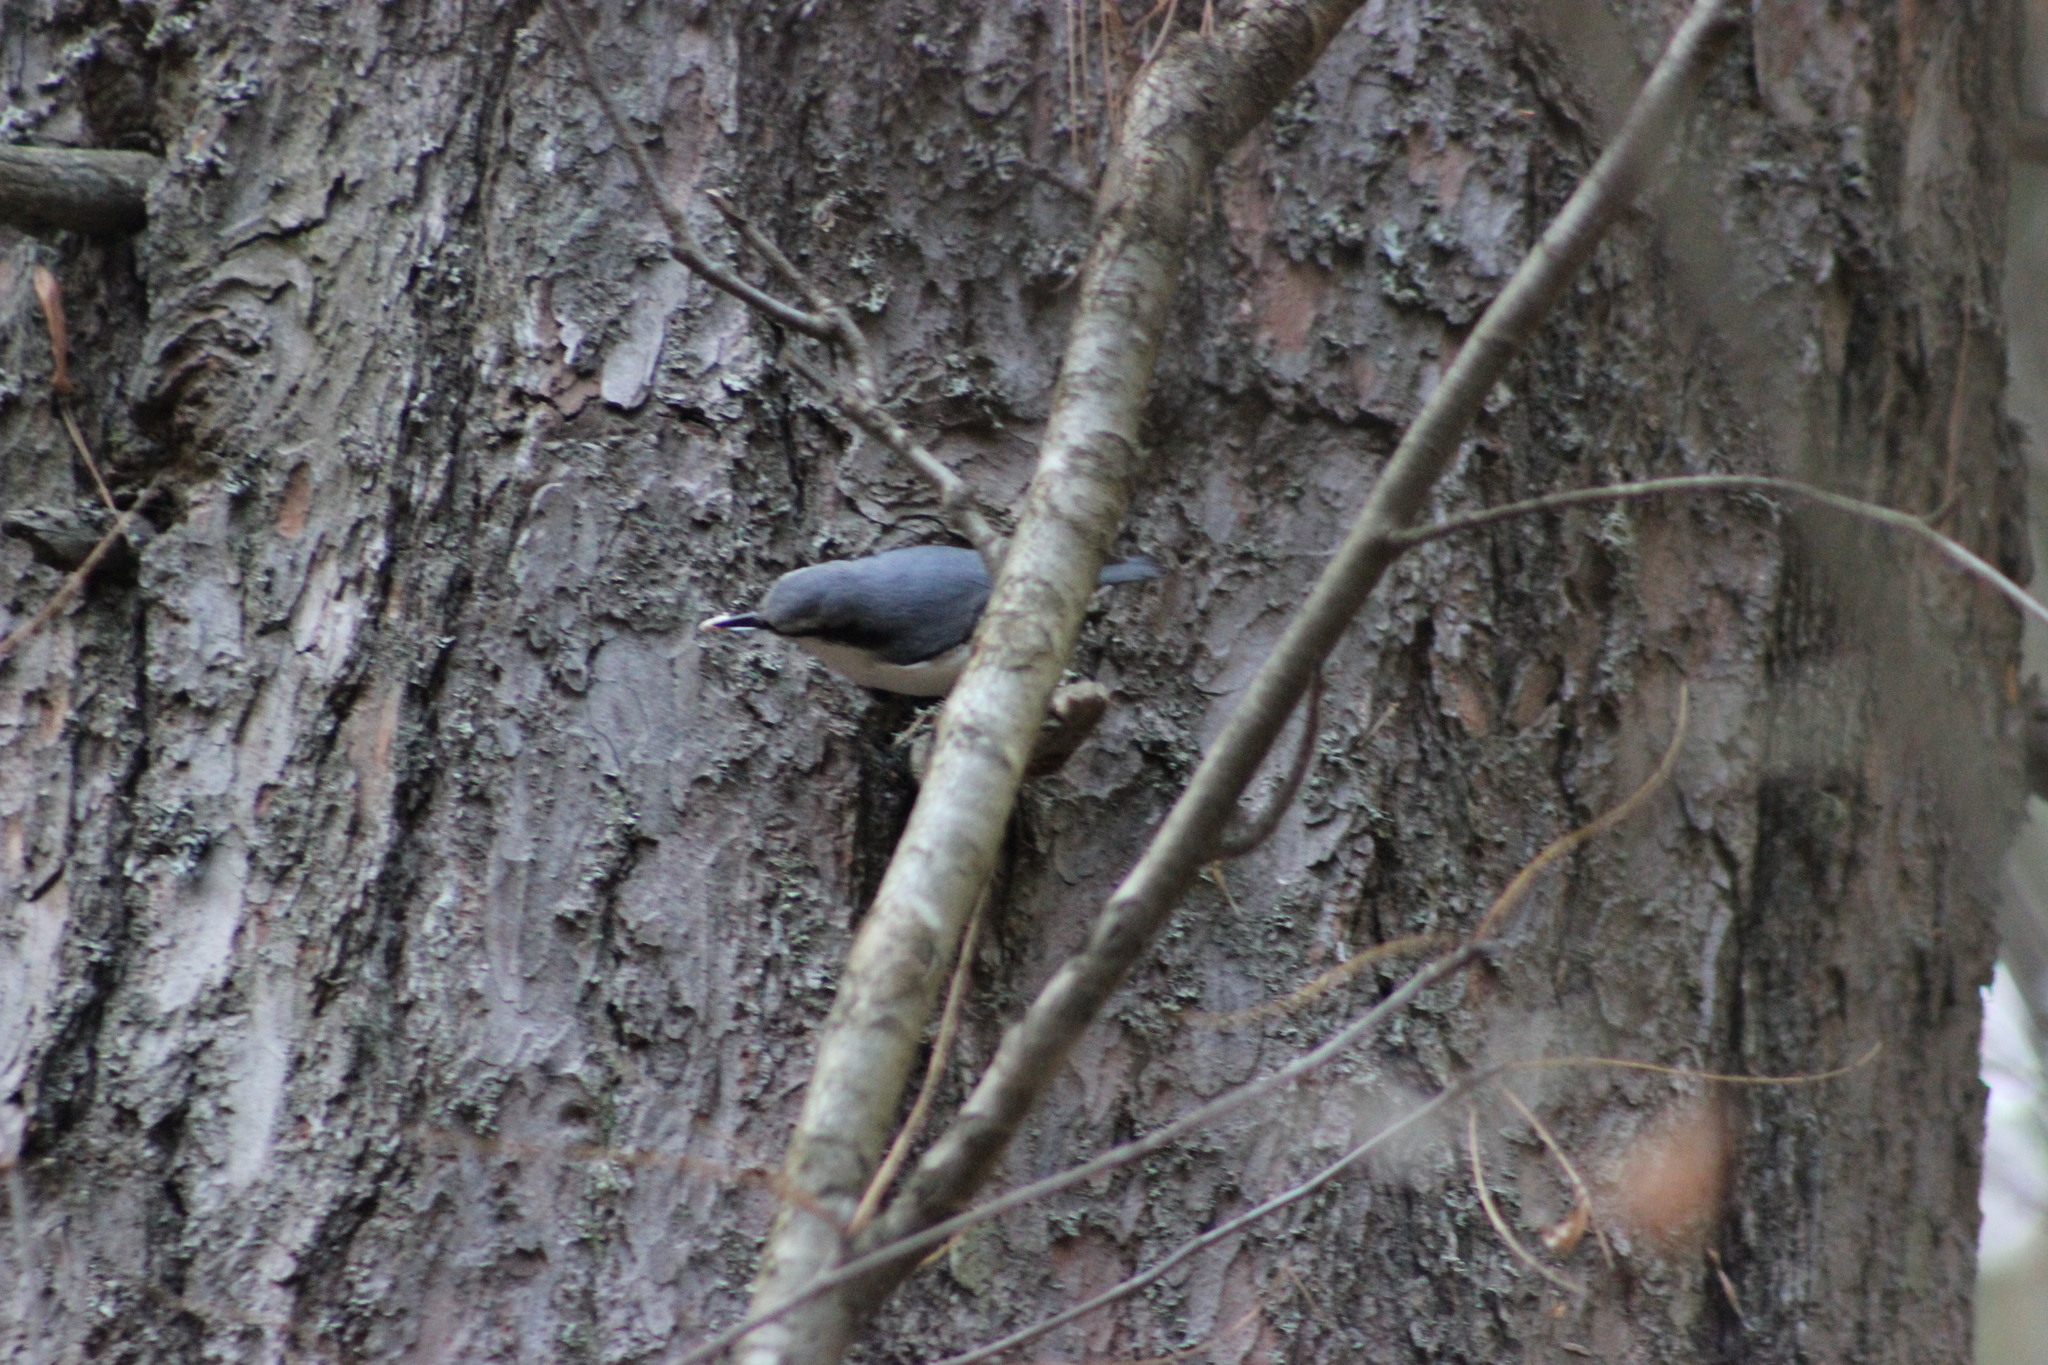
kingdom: Animalia
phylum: Chordata
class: Aves
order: Passeriformes
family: Sittidae
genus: Sitta
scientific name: Sitta europaea
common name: Eurasian nuthatch
